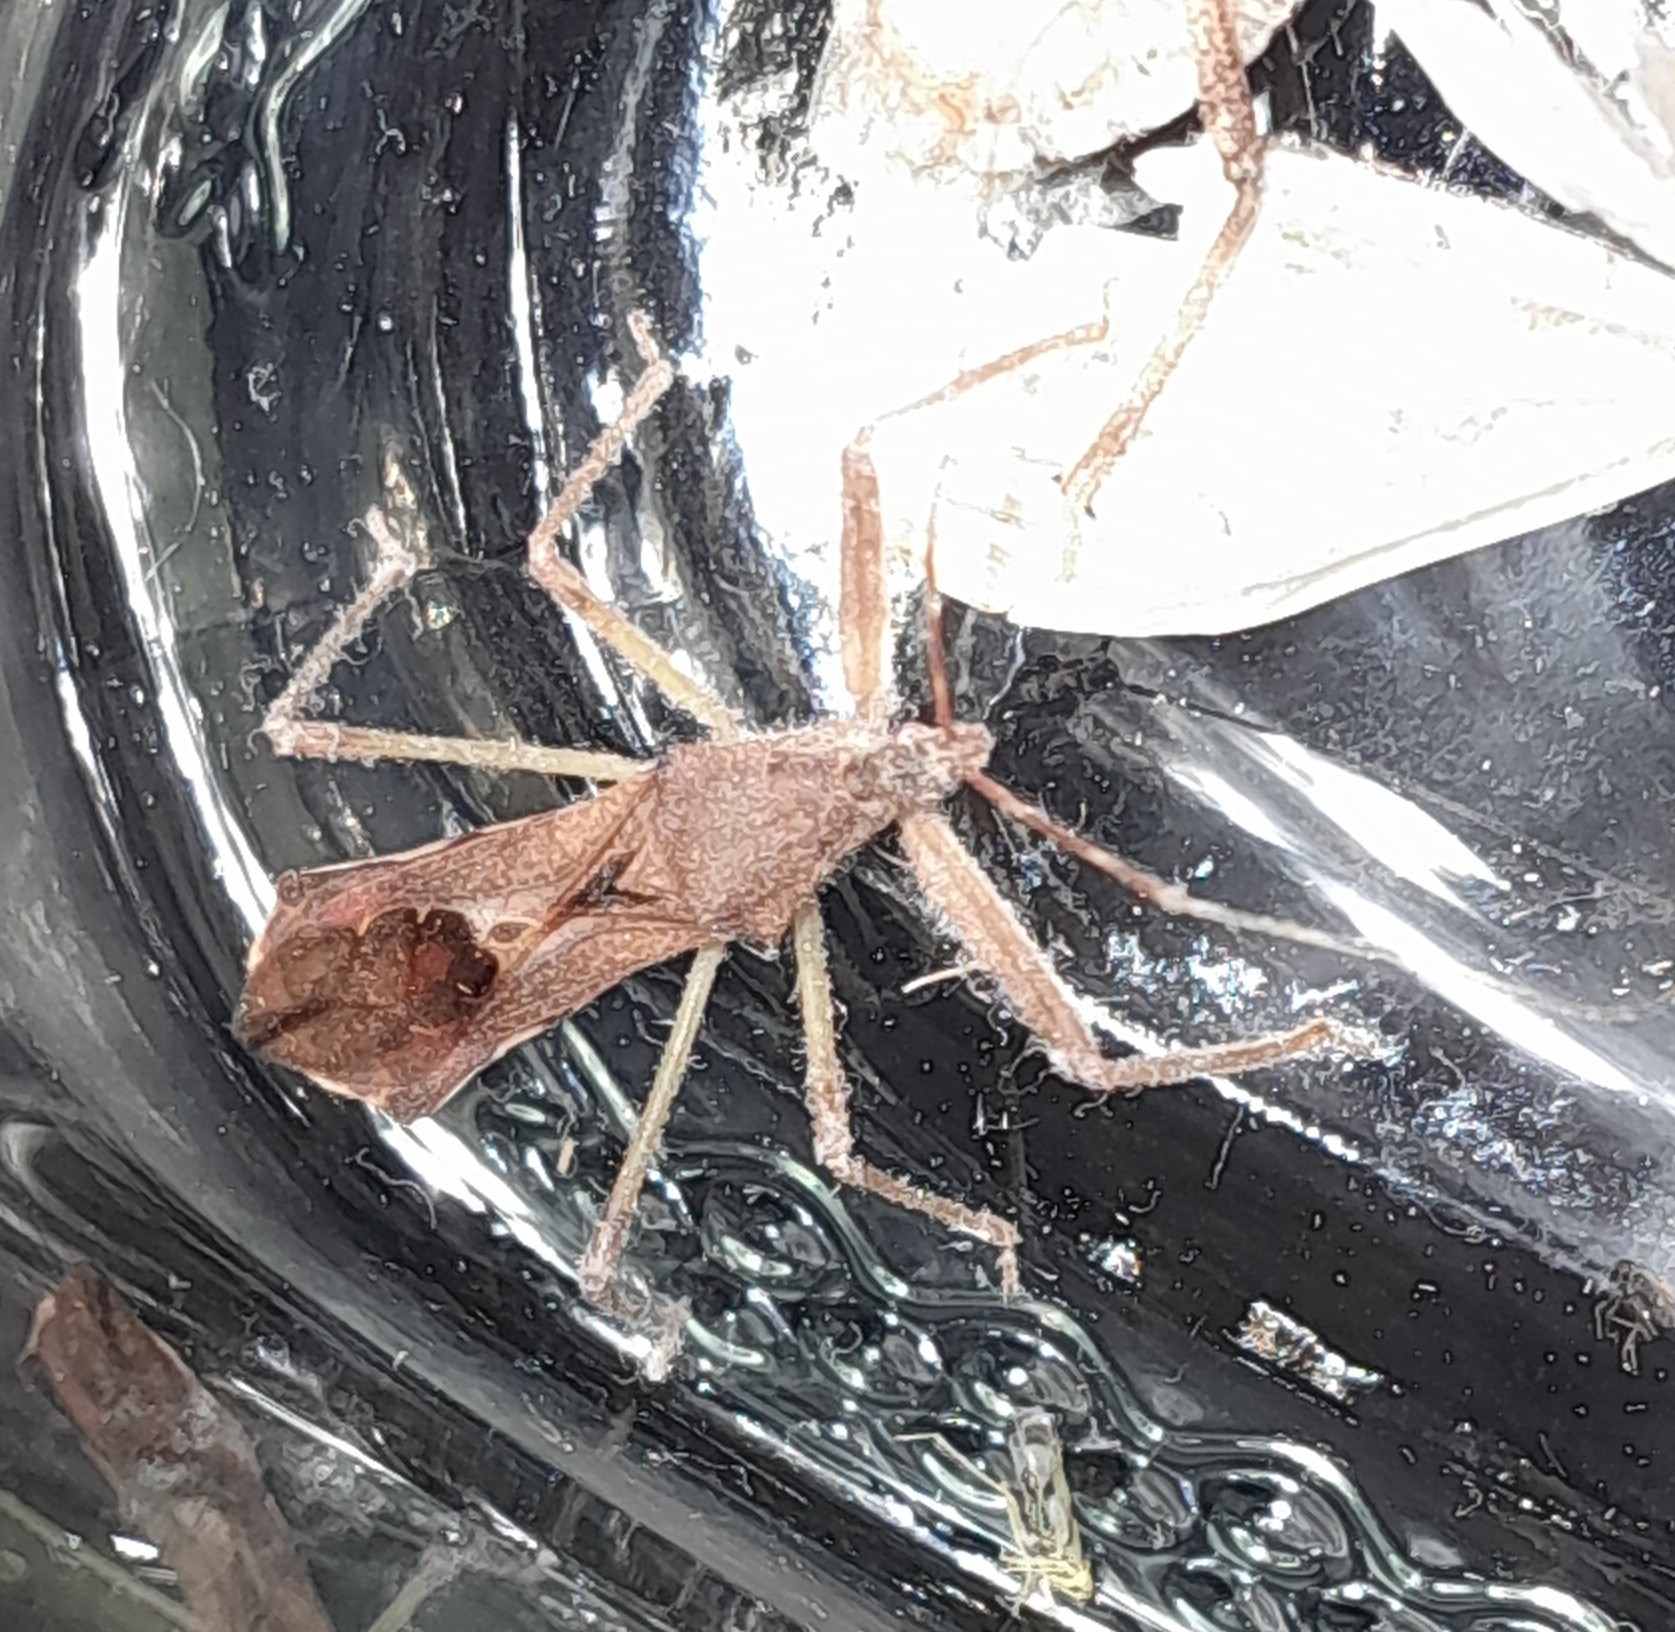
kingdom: Animalia
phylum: Arthropoda
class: Insecta
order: Hemiptera
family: Reduviidae
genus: Nagusta
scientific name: Nagusta goedelii
